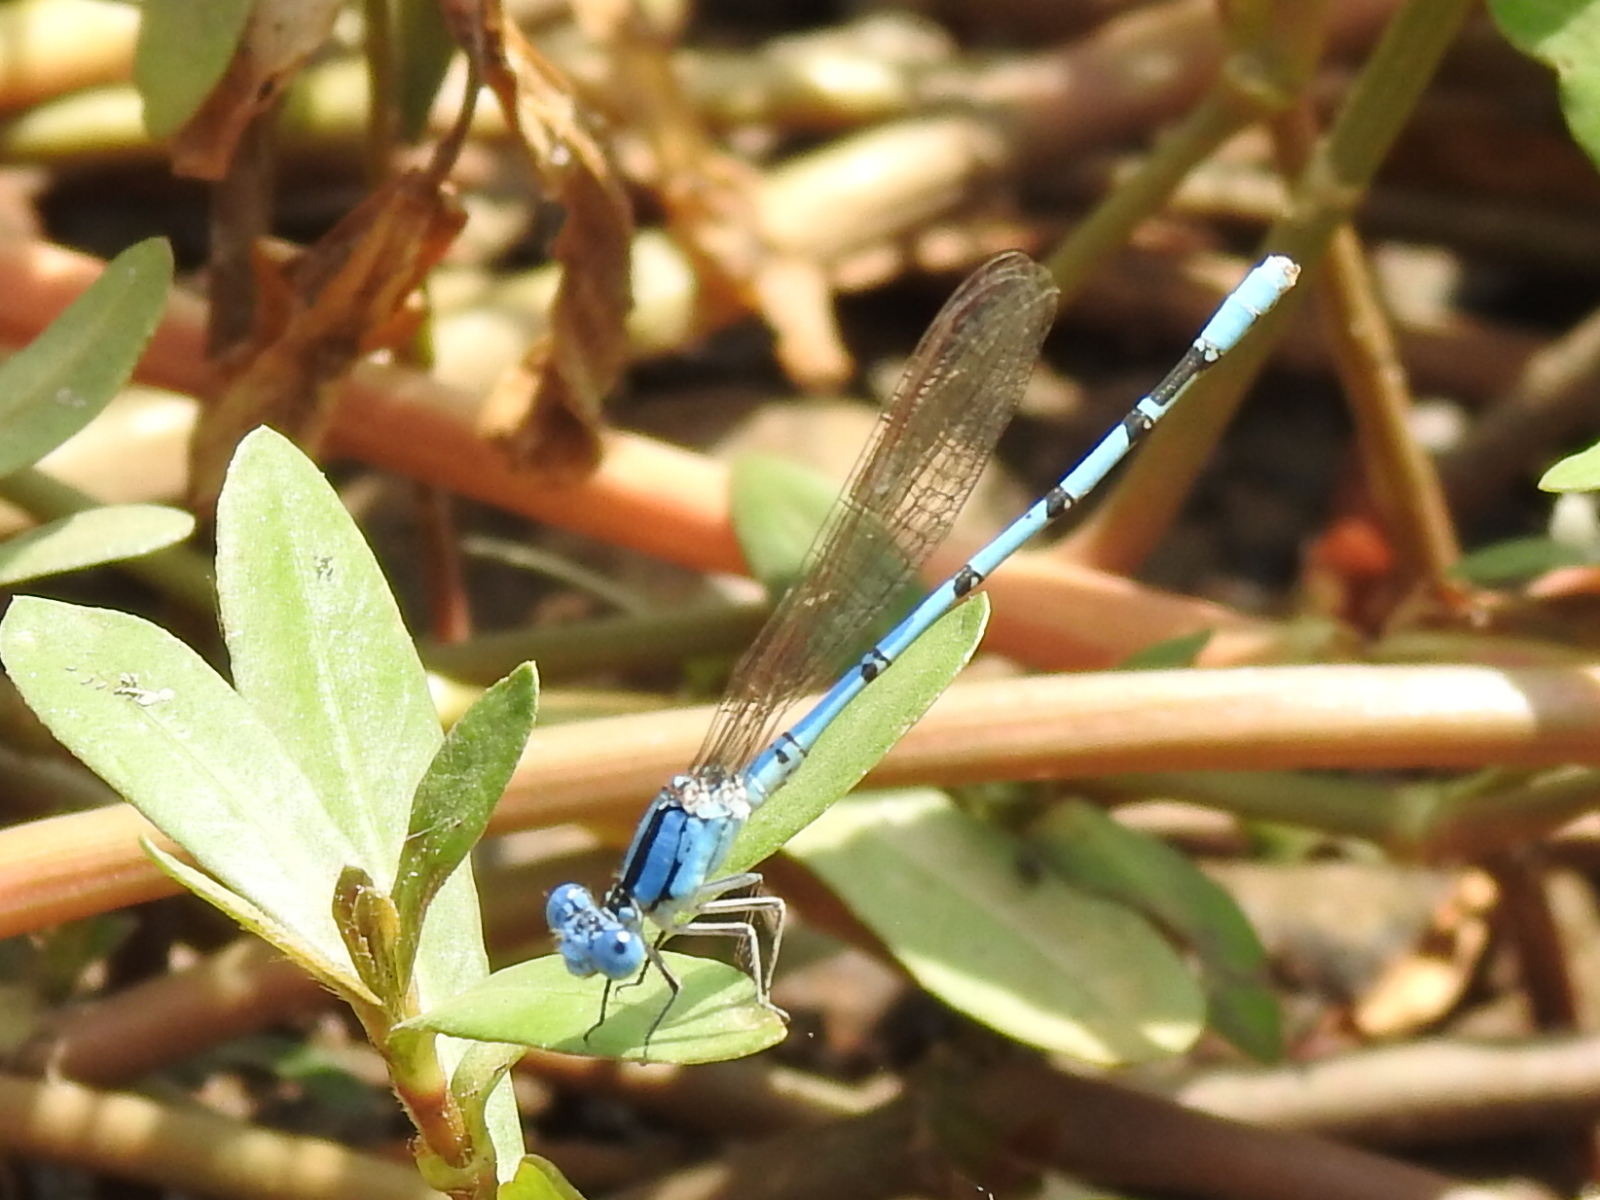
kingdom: Animalia
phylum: Arthropoda
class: Insecta
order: Odonata
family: Coenagrionidae
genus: Argia
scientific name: Argia nahuana
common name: Aztec dancer
